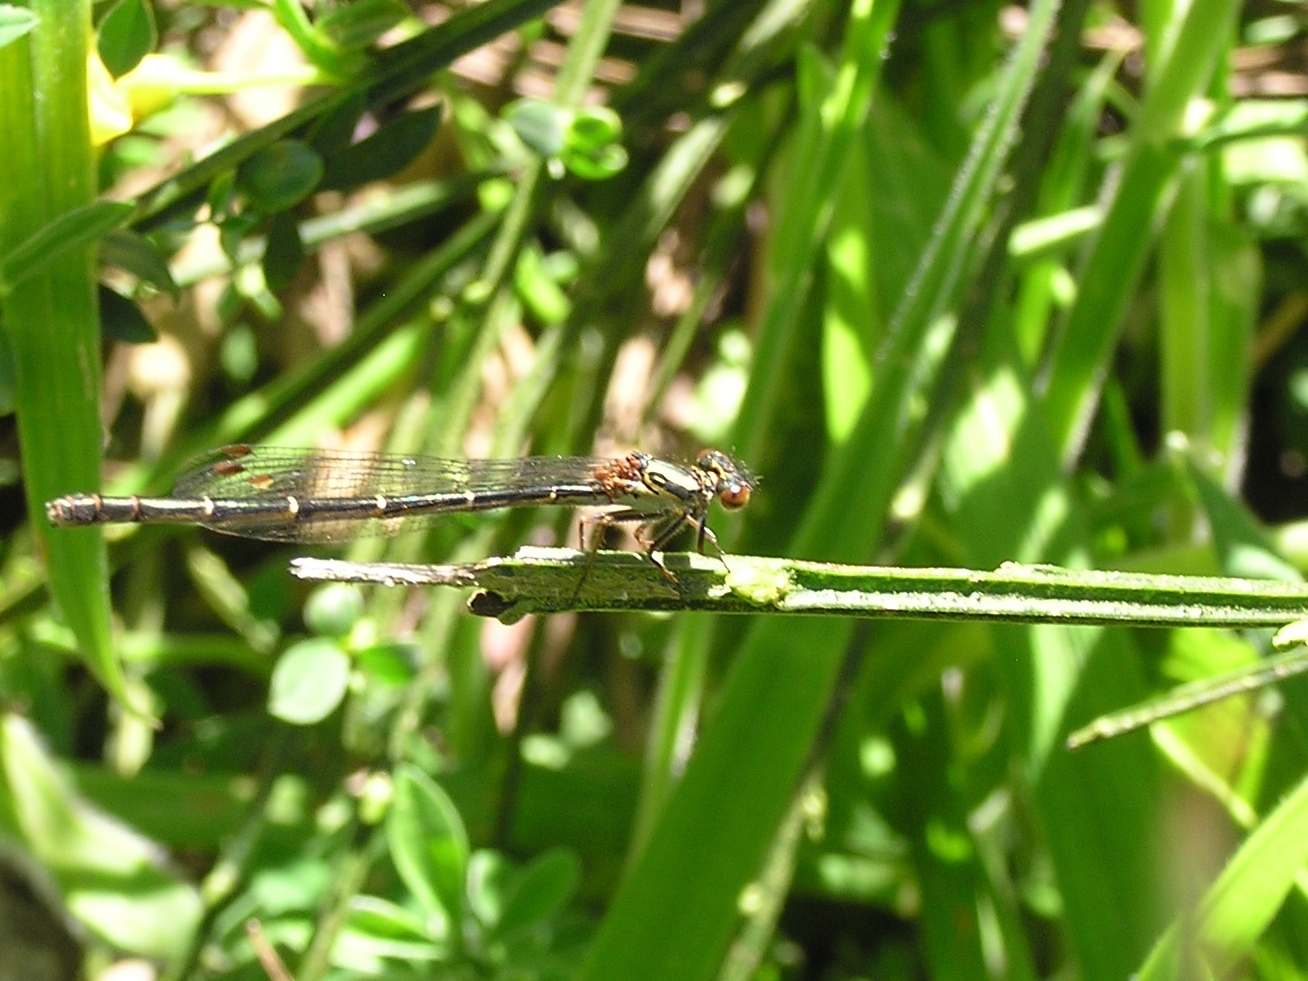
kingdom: Animalia
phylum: Arthropoda
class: Insecta
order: Odonata
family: Coenagrionidae
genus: Xanthocnemis
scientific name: Xanthocnemis zealandica
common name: Common redcoat damselfly
